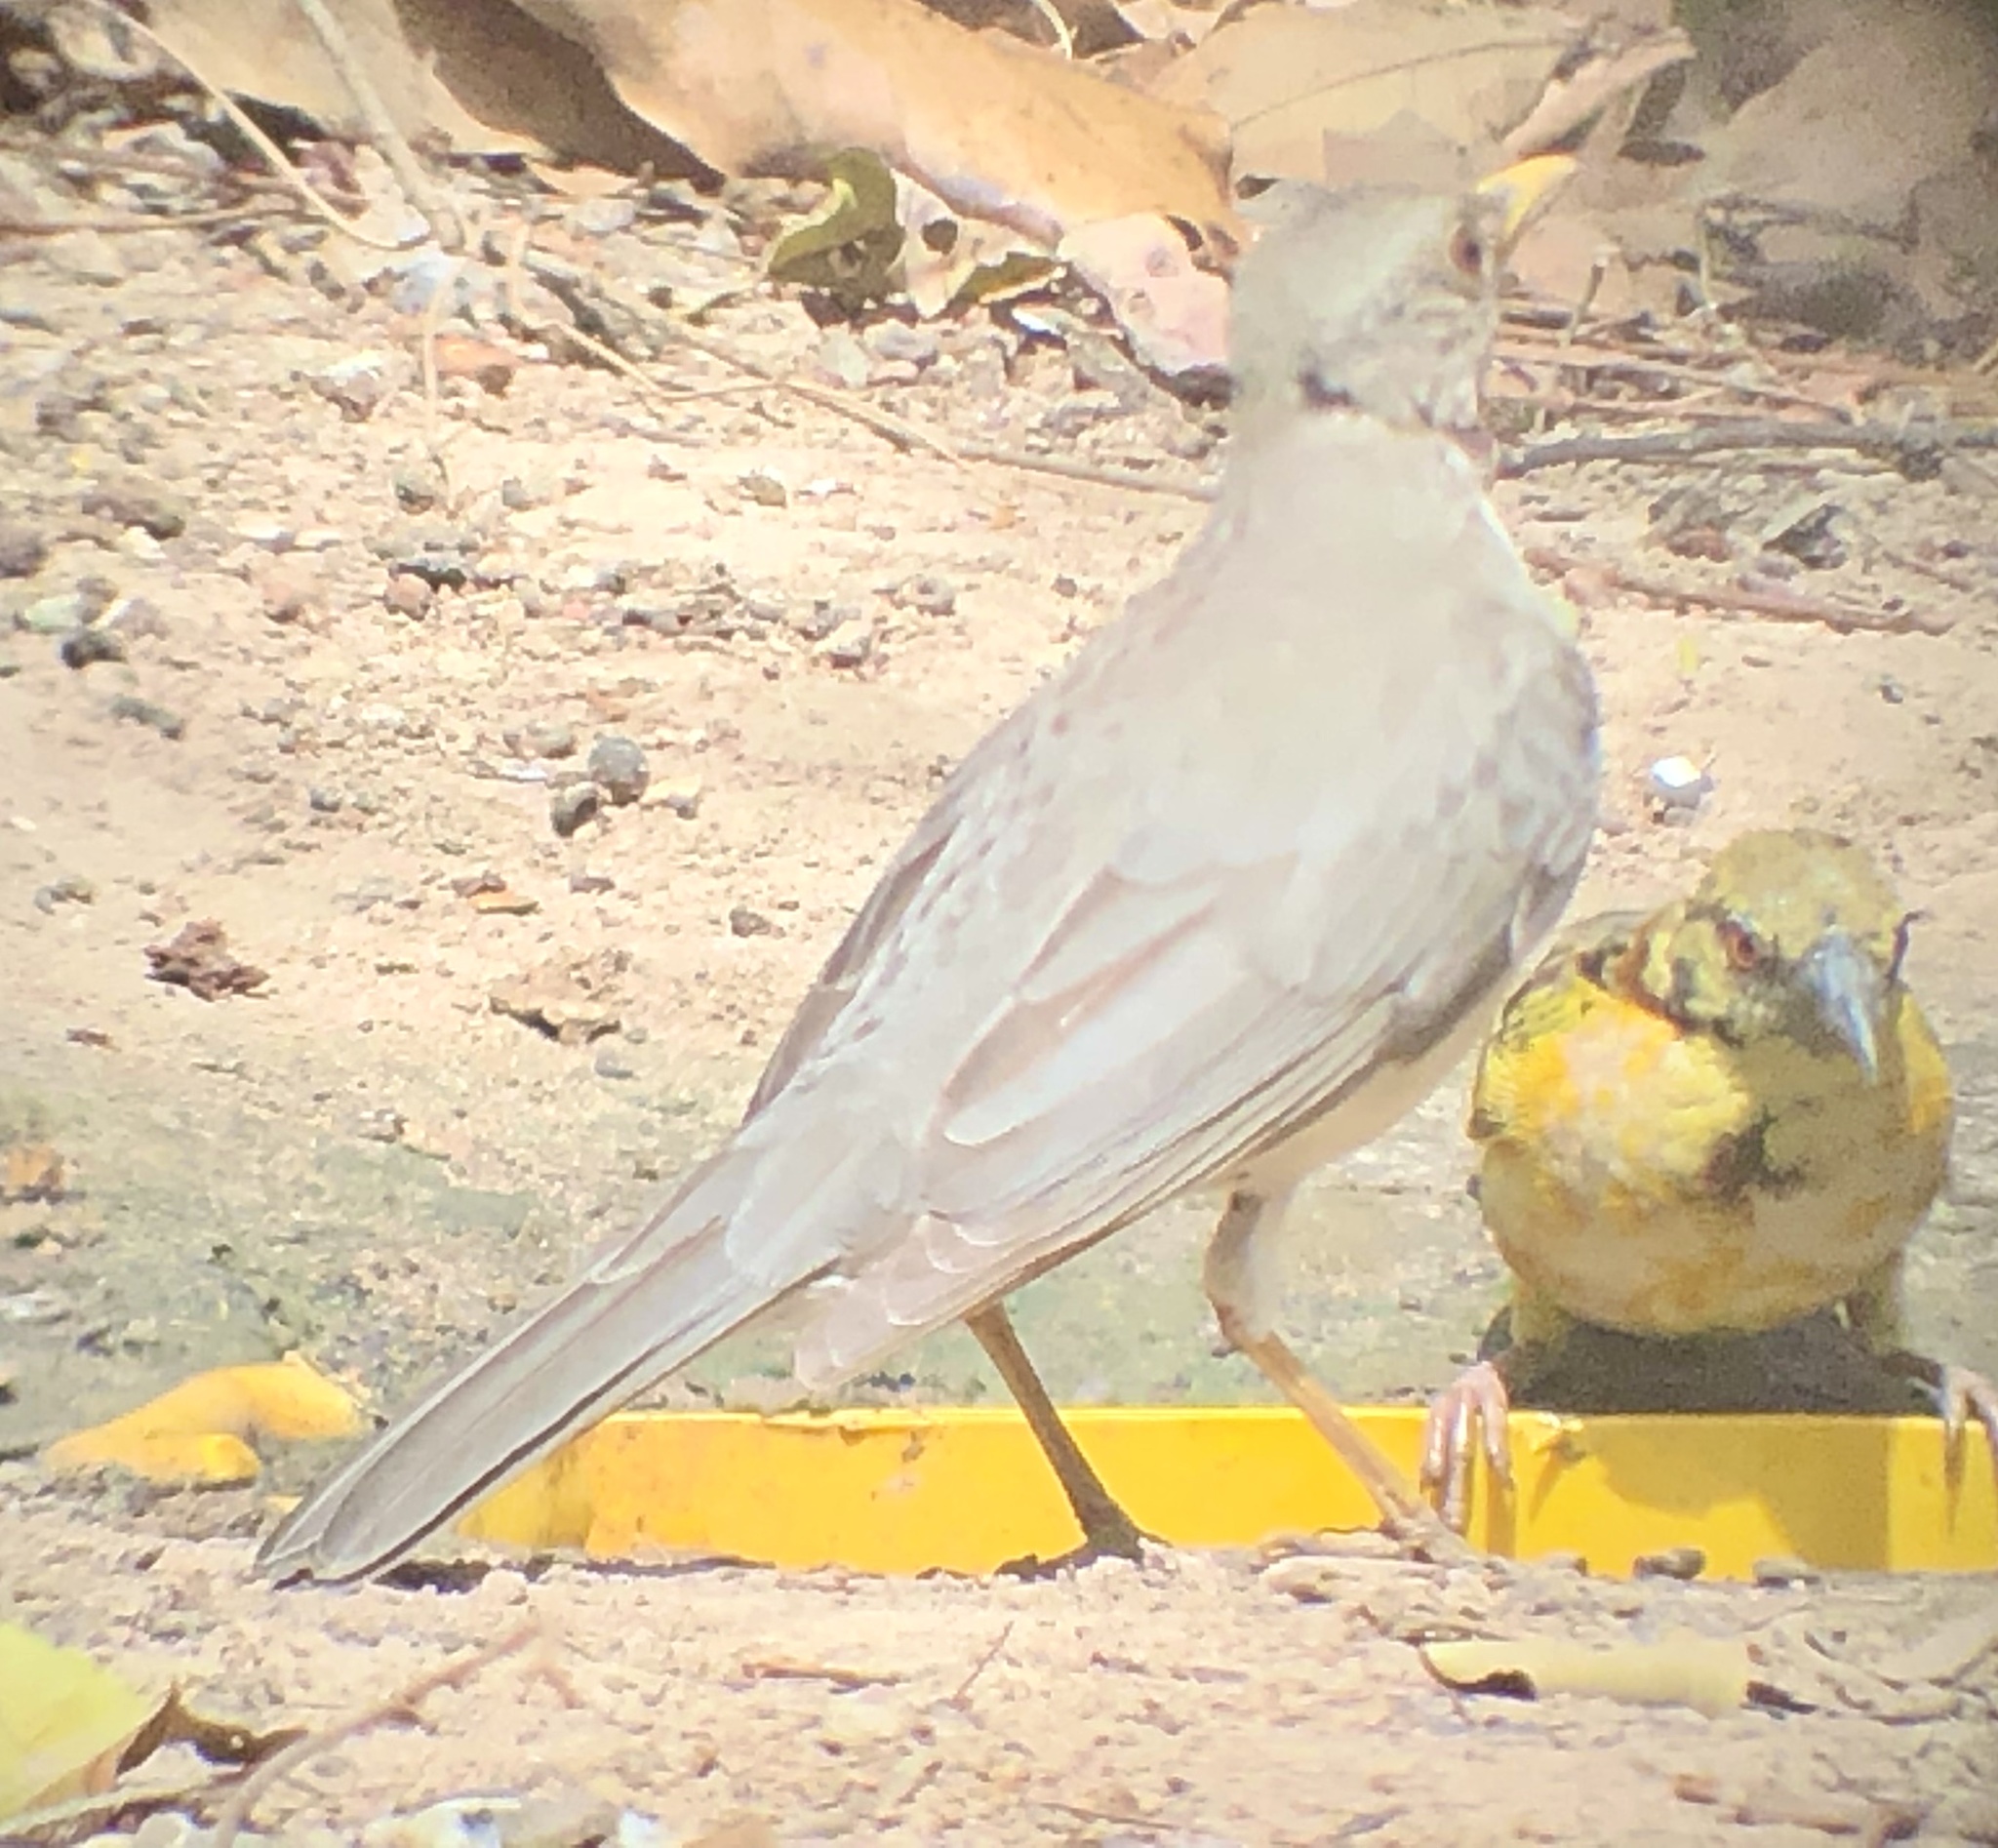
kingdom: Animalia
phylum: Chordata
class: Aves
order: Passeriformes
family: Turdidae
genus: Turdus
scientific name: Turdus pelios
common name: African thrush
